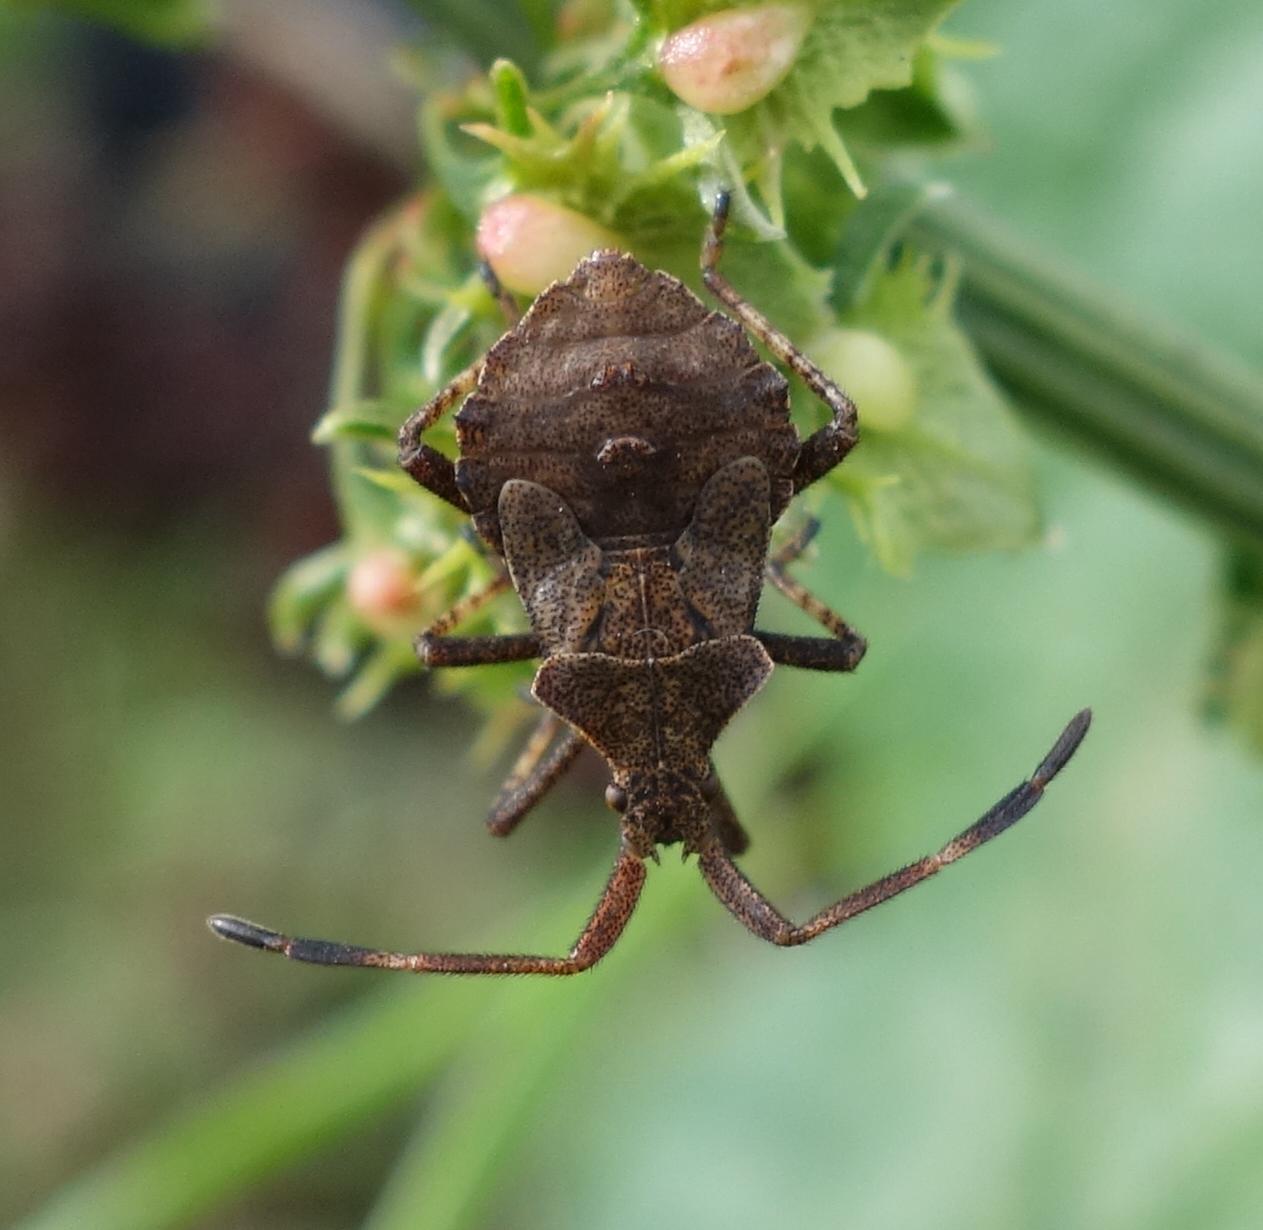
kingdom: Animalia
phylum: Arthropoda
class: Insecta
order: Hemiptera
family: Coreidae
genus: Coreus
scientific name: Coreus marginatus
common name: Dock bug
